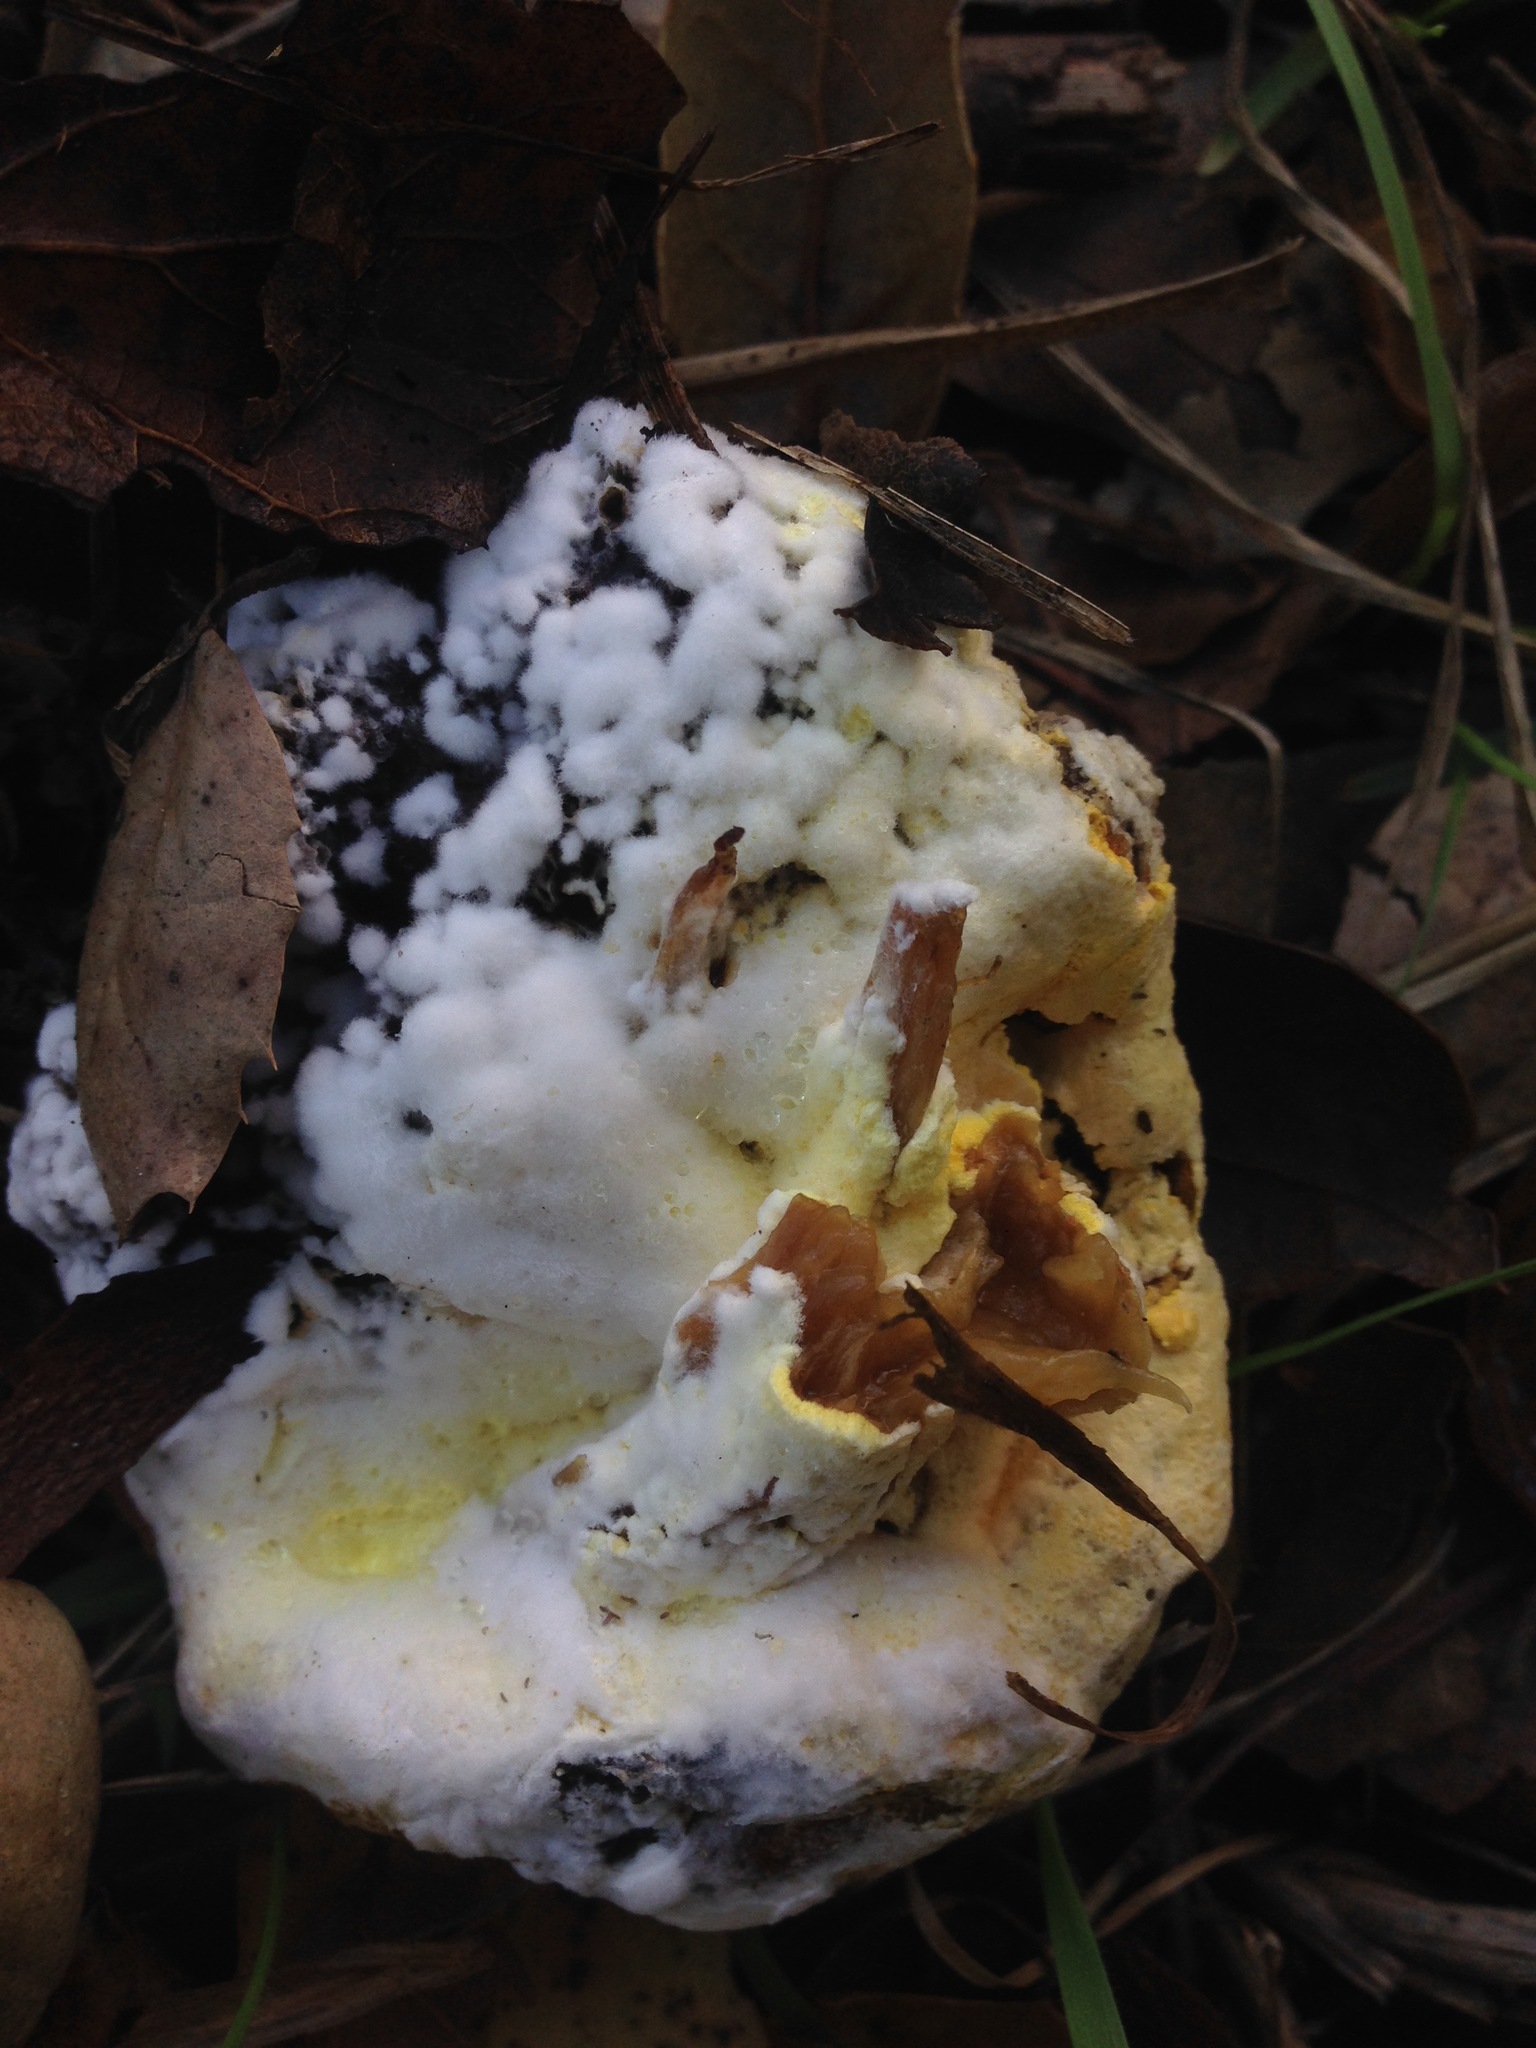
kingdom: Fungi
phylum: Ascomycota
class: Sordariomycetes
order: Hypocreales
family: Hypocreaceae
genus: Hypomyces
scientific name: Hypomyces chrysospermus
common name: Bolete mould
